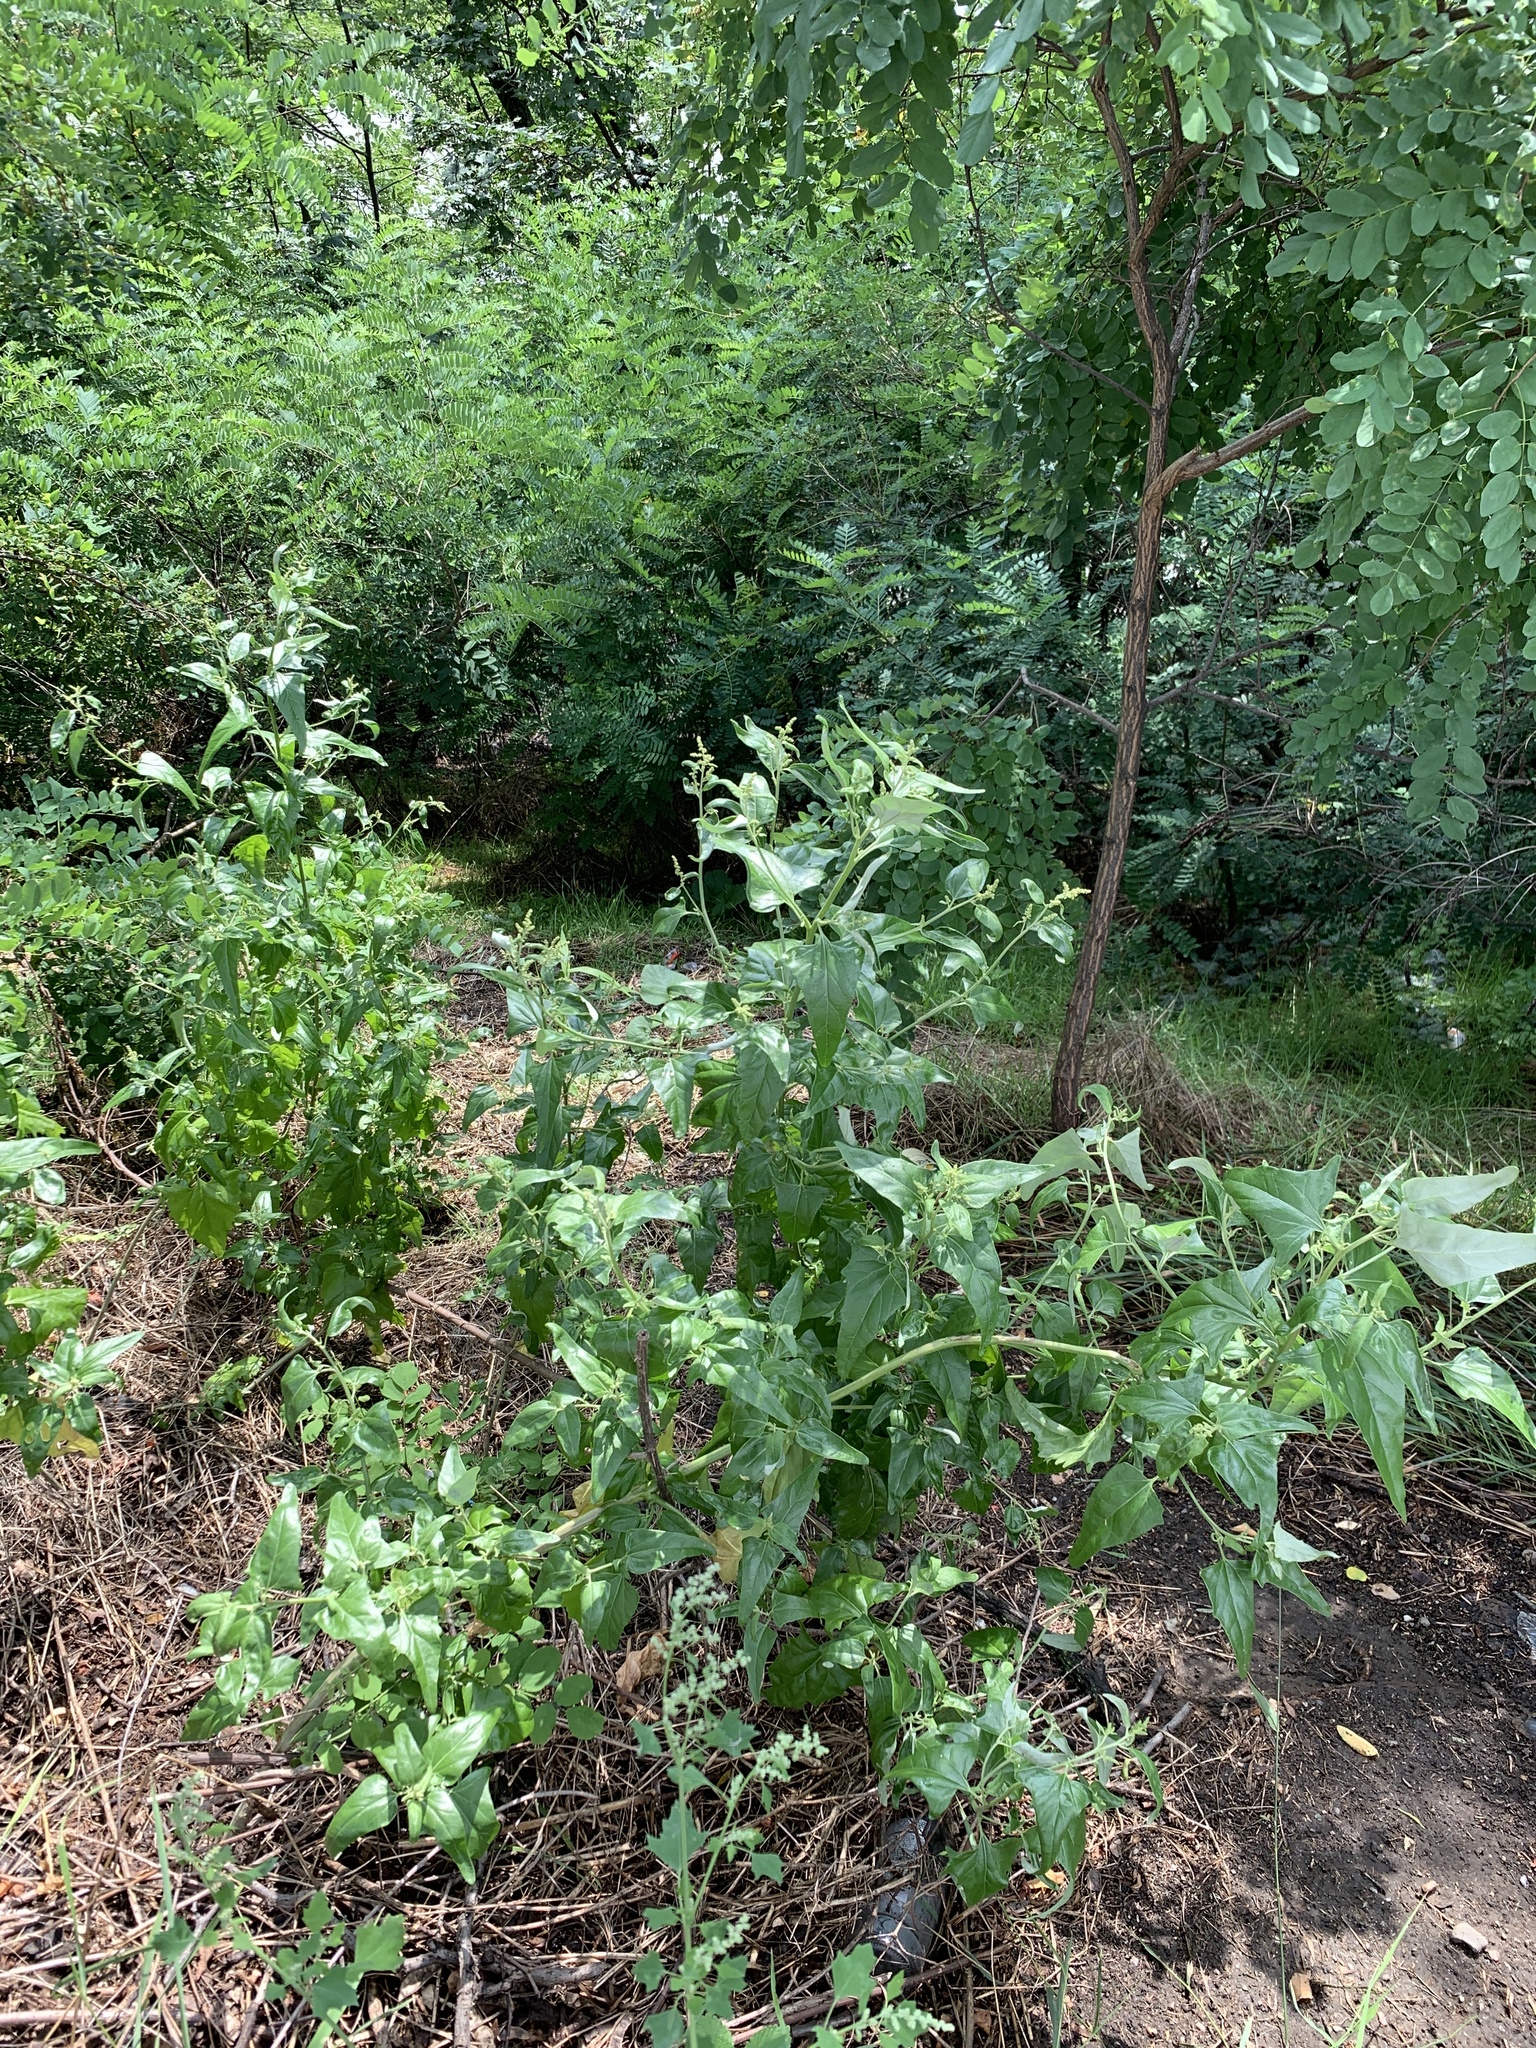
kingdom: Plantae
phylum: Tracheophyta
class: Magnoliopsida
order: Caryophyllales
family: Amaranthaceae
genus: Atriplex
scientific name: Atriplex sagittata
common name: Purple orache
